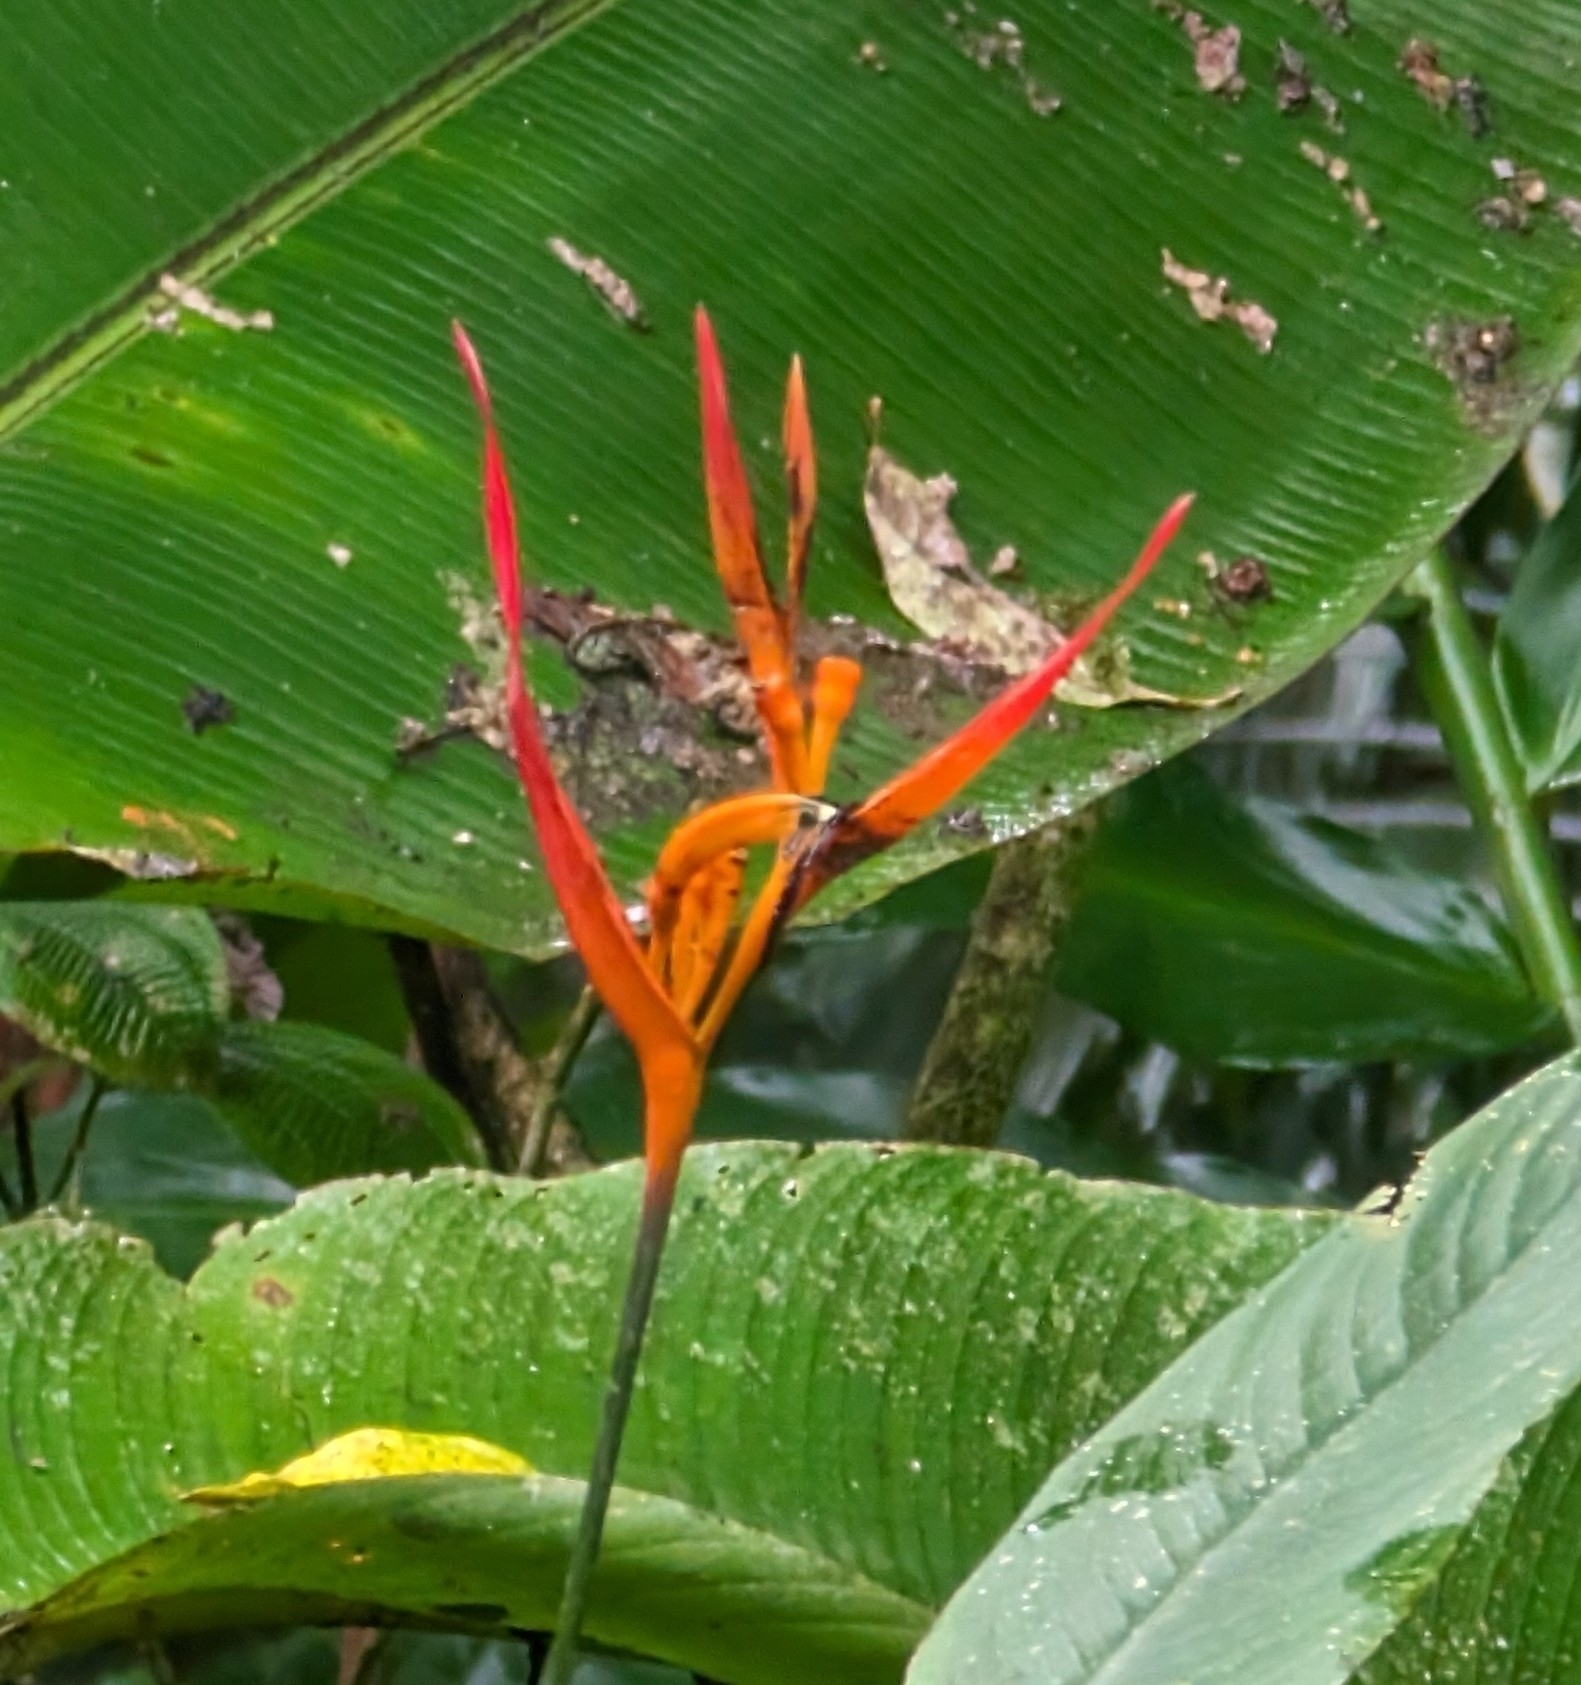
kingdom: Plantae
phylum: Tracheophyta
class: Liliopsida
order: Zingiberales
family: Heliconiaceae
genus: Heliconia
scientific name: Heliconia psittacorum
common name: Parrot's-flower
